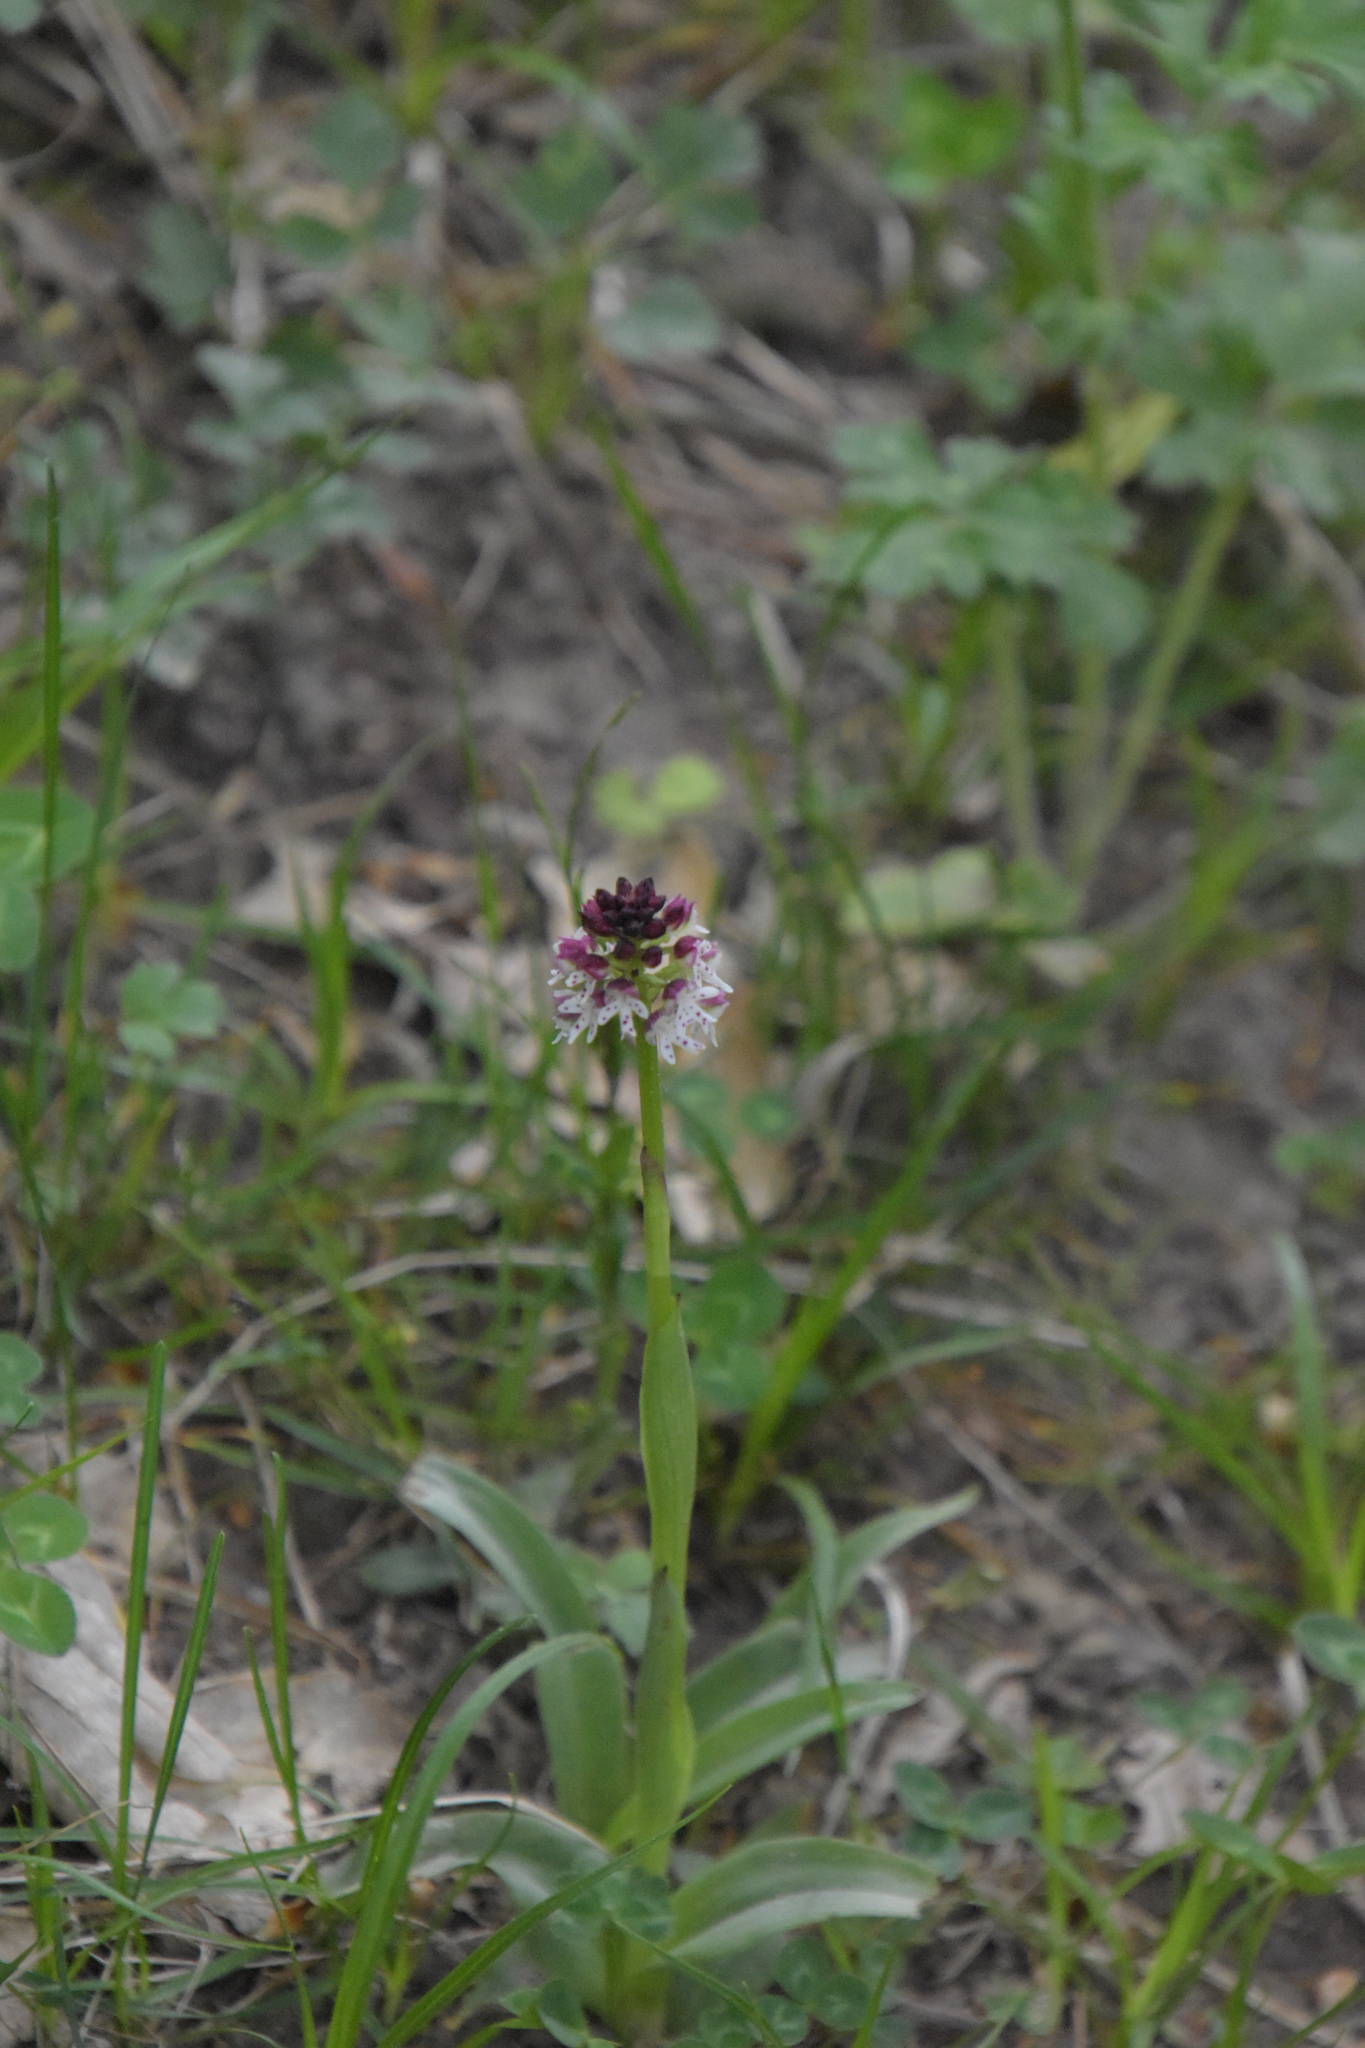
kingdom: Plantae
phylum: Tracheophyta
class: Liliopsida
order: Asparagales
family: Orchidaceae
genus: Neotinea
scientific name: Neotinea ustulata
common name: Burnt orchid
